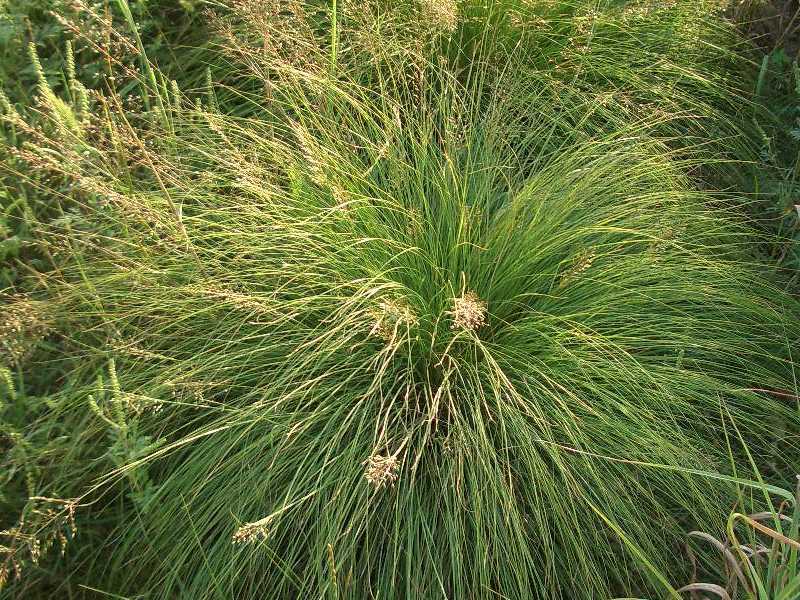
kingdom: Plantae
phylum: Tracheophyta
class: Liliopsida
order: Poales
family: Poaceae
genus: Sporobolus
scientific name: Sporobolus heterolepis
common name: Prairie dropseed
